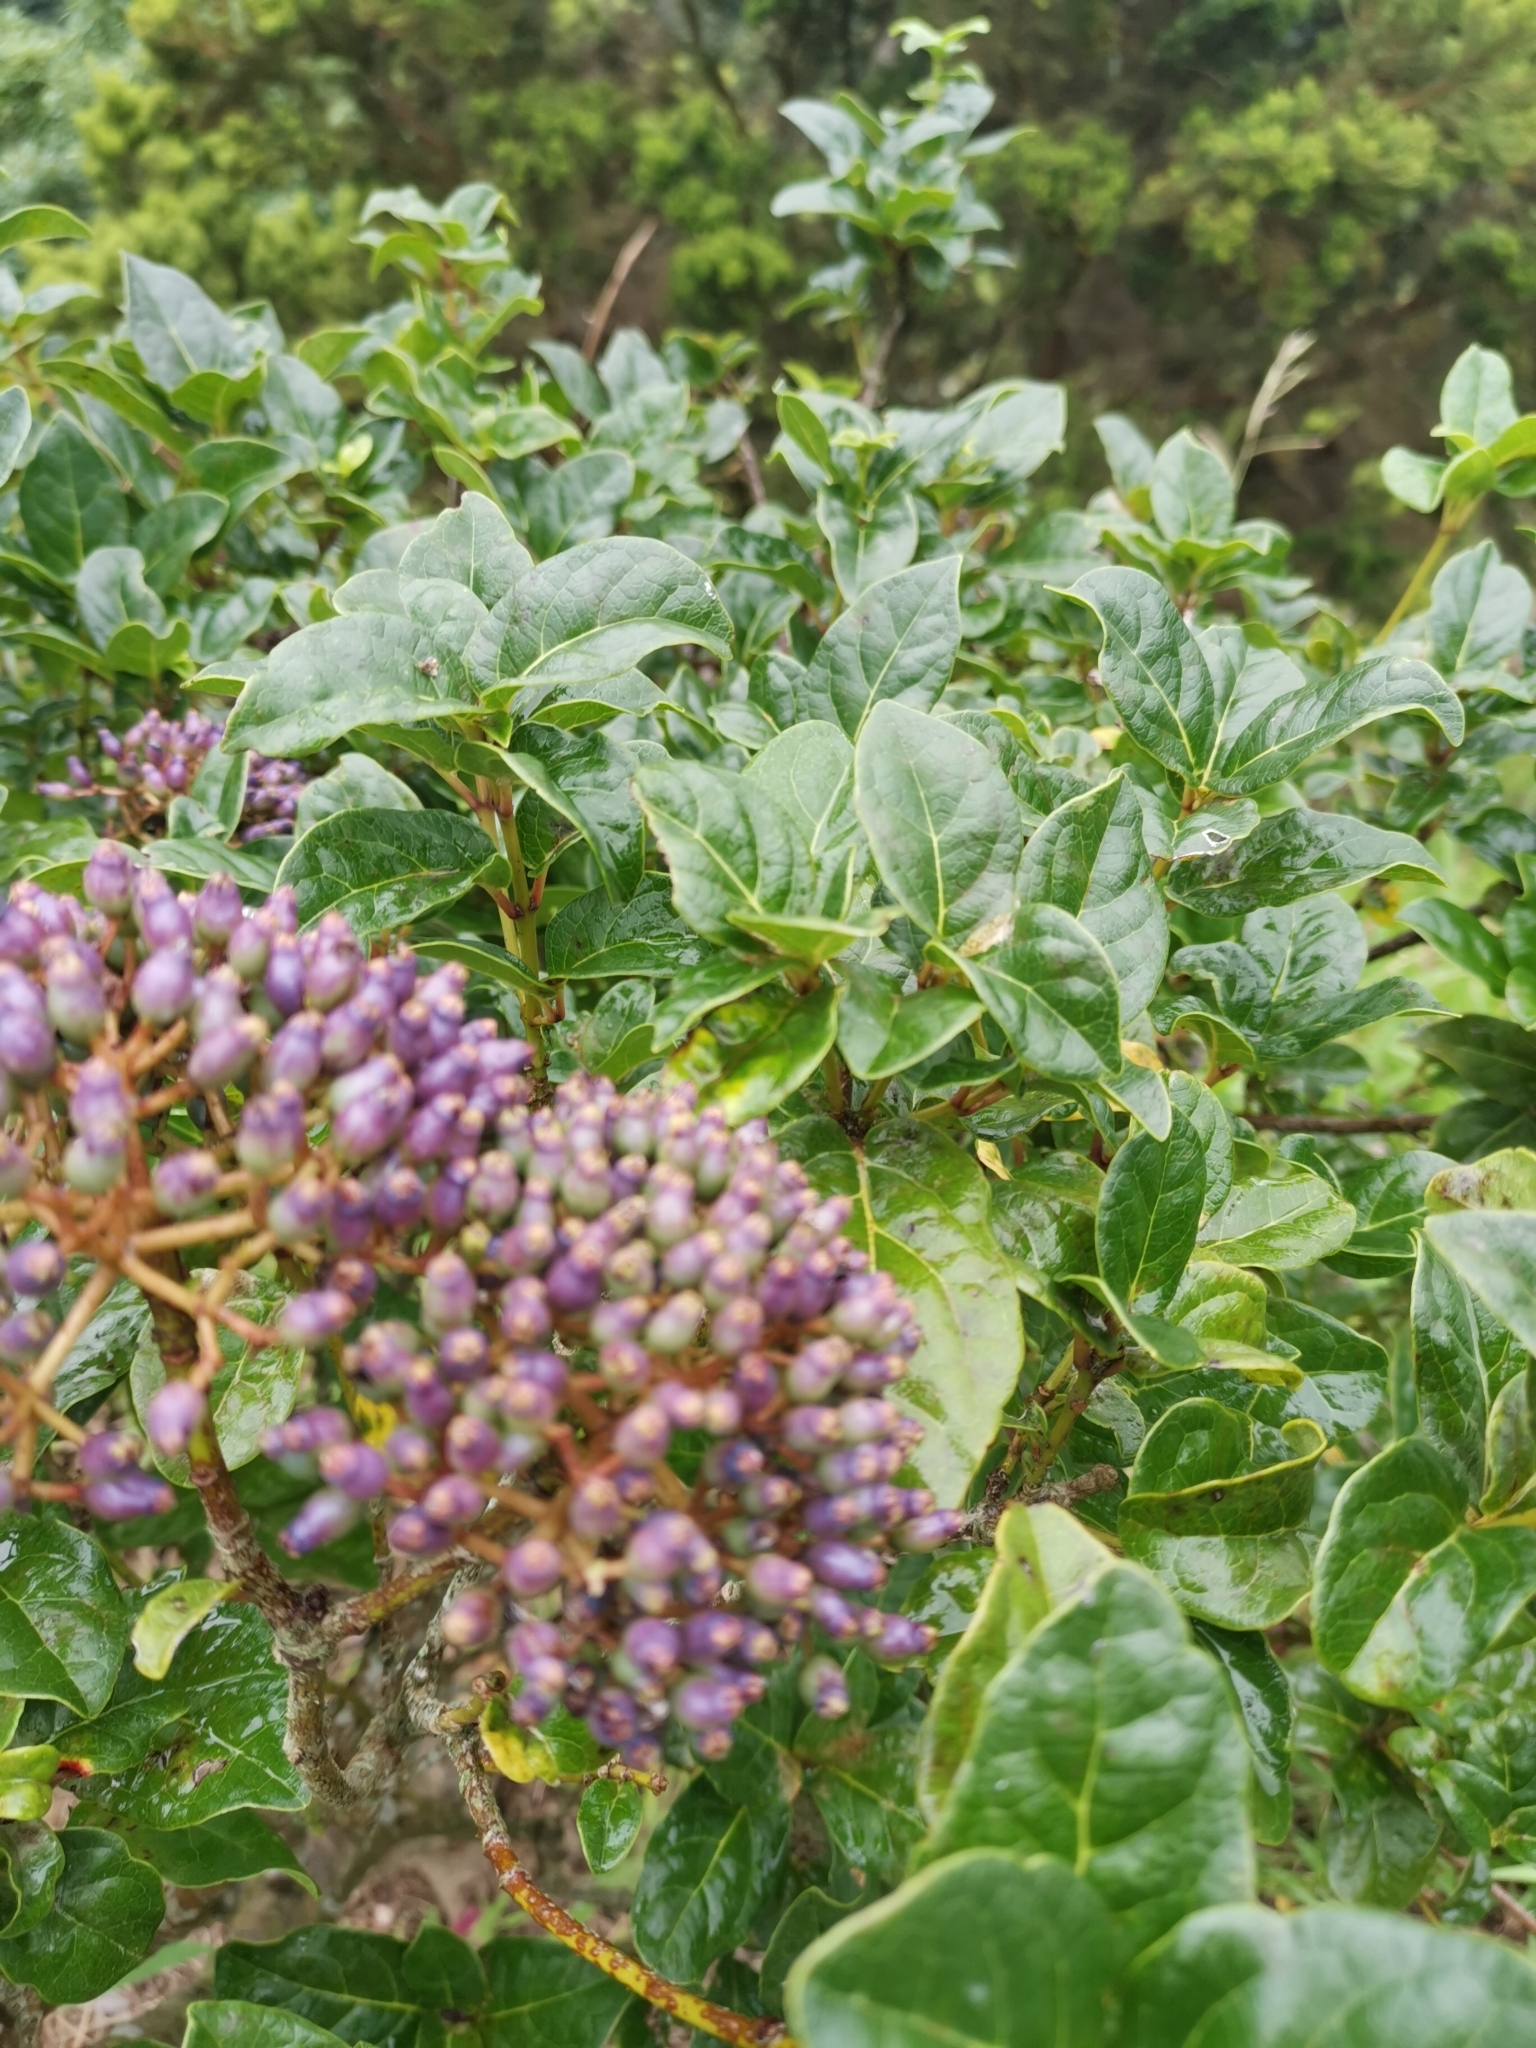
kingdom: Plantae
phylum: Tracheophyta
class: Magnoliopsida
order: Dipsacales
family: Viburnaceae
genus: Viburnum
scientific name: Viburnum treleasei
